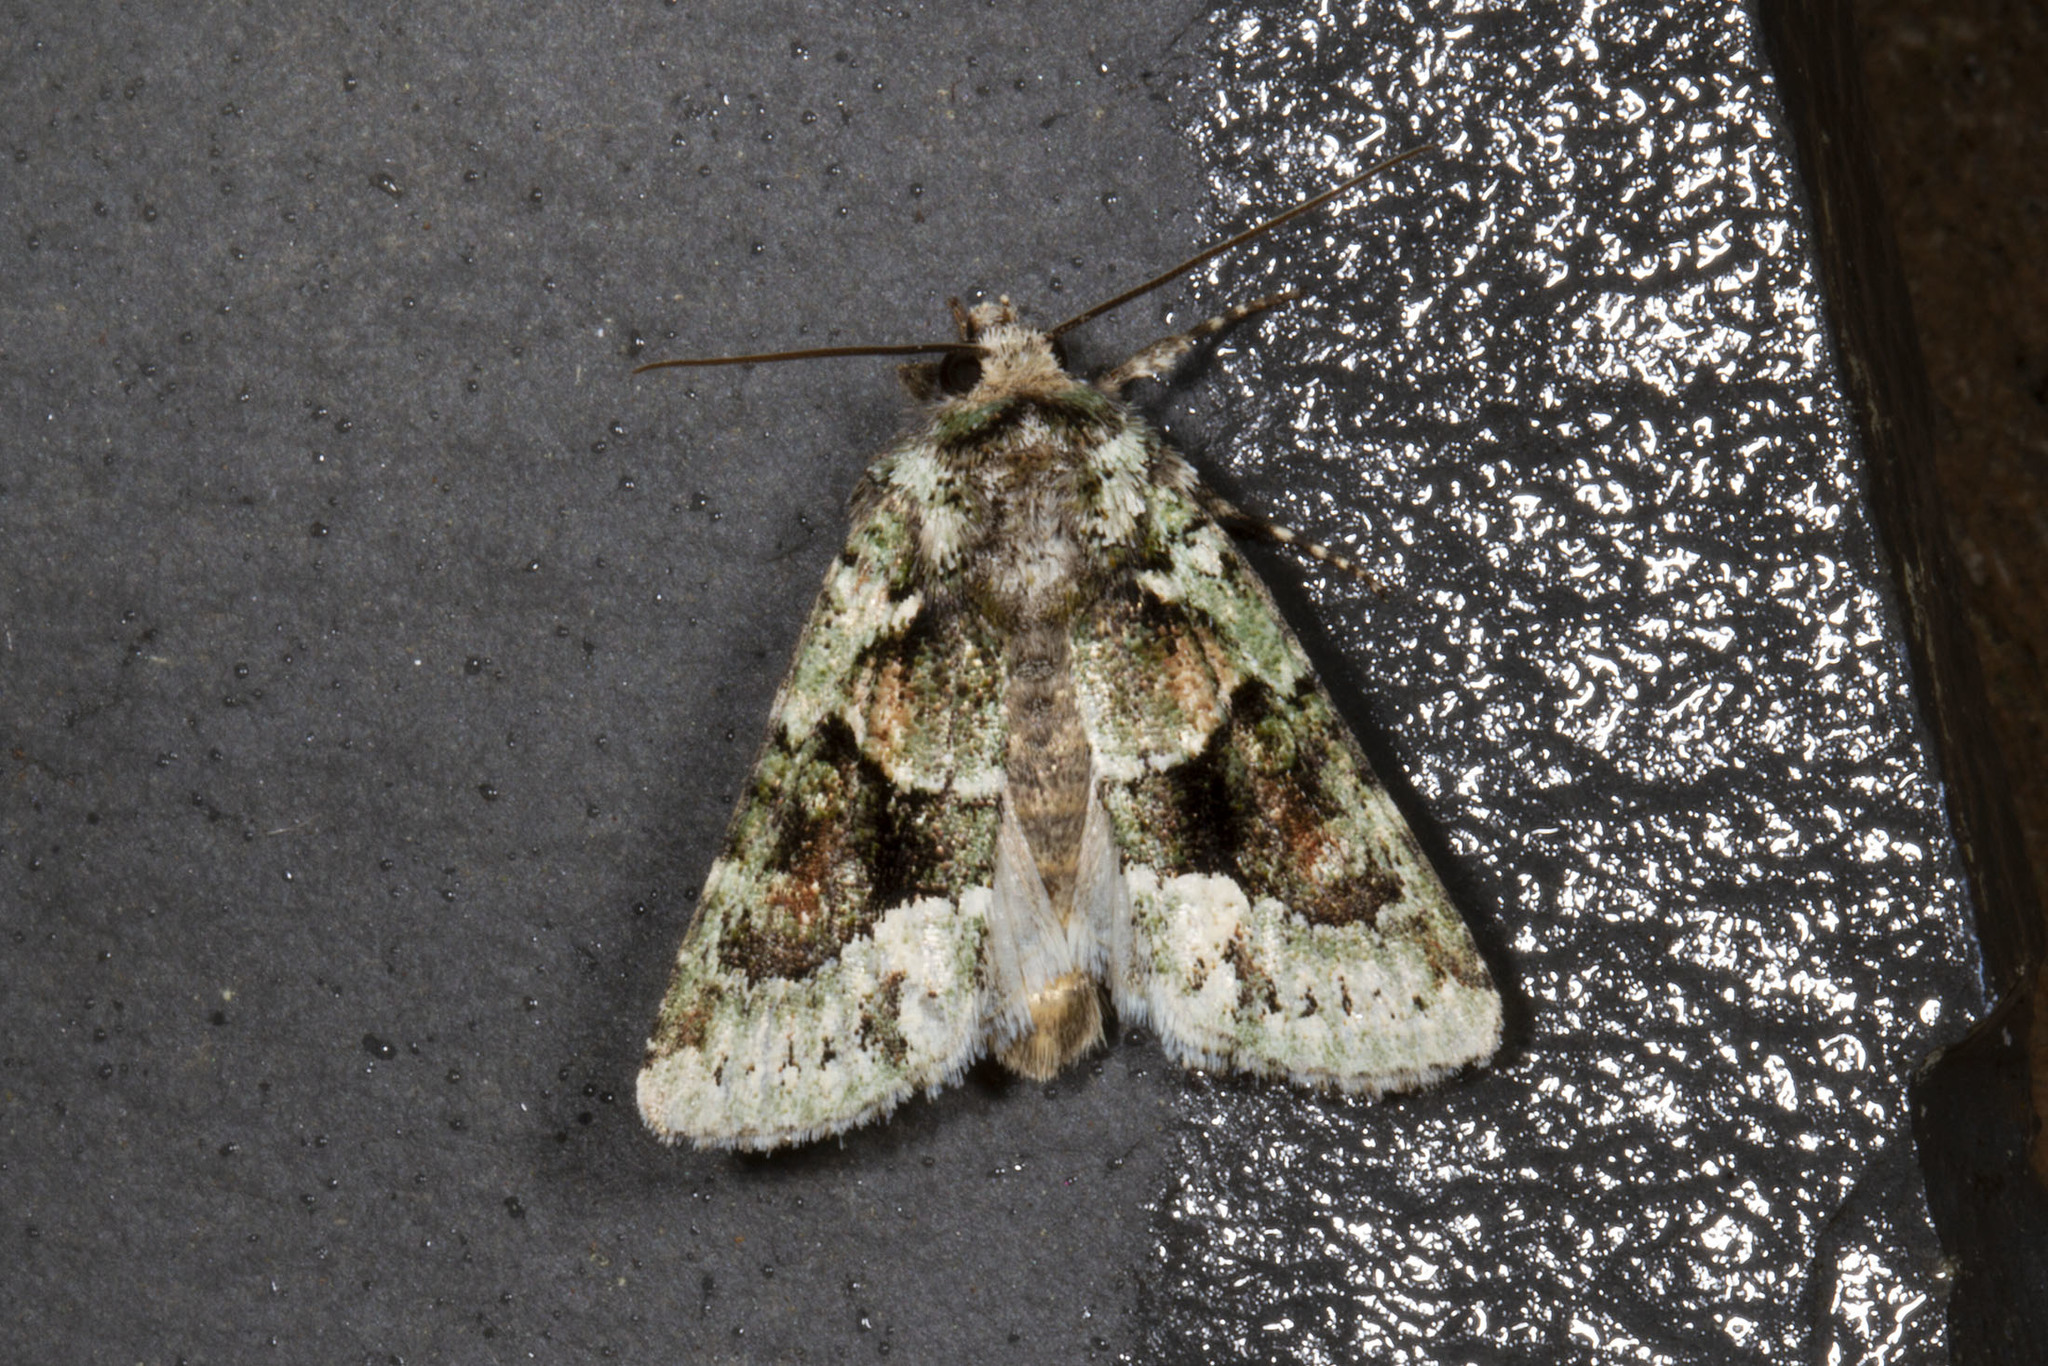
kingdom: Animalia
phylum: Arthropoda
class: Insecta
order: Lepidoptera
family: Noctuidae
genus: Lacinipolia
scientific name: Lacinipolia explicata
